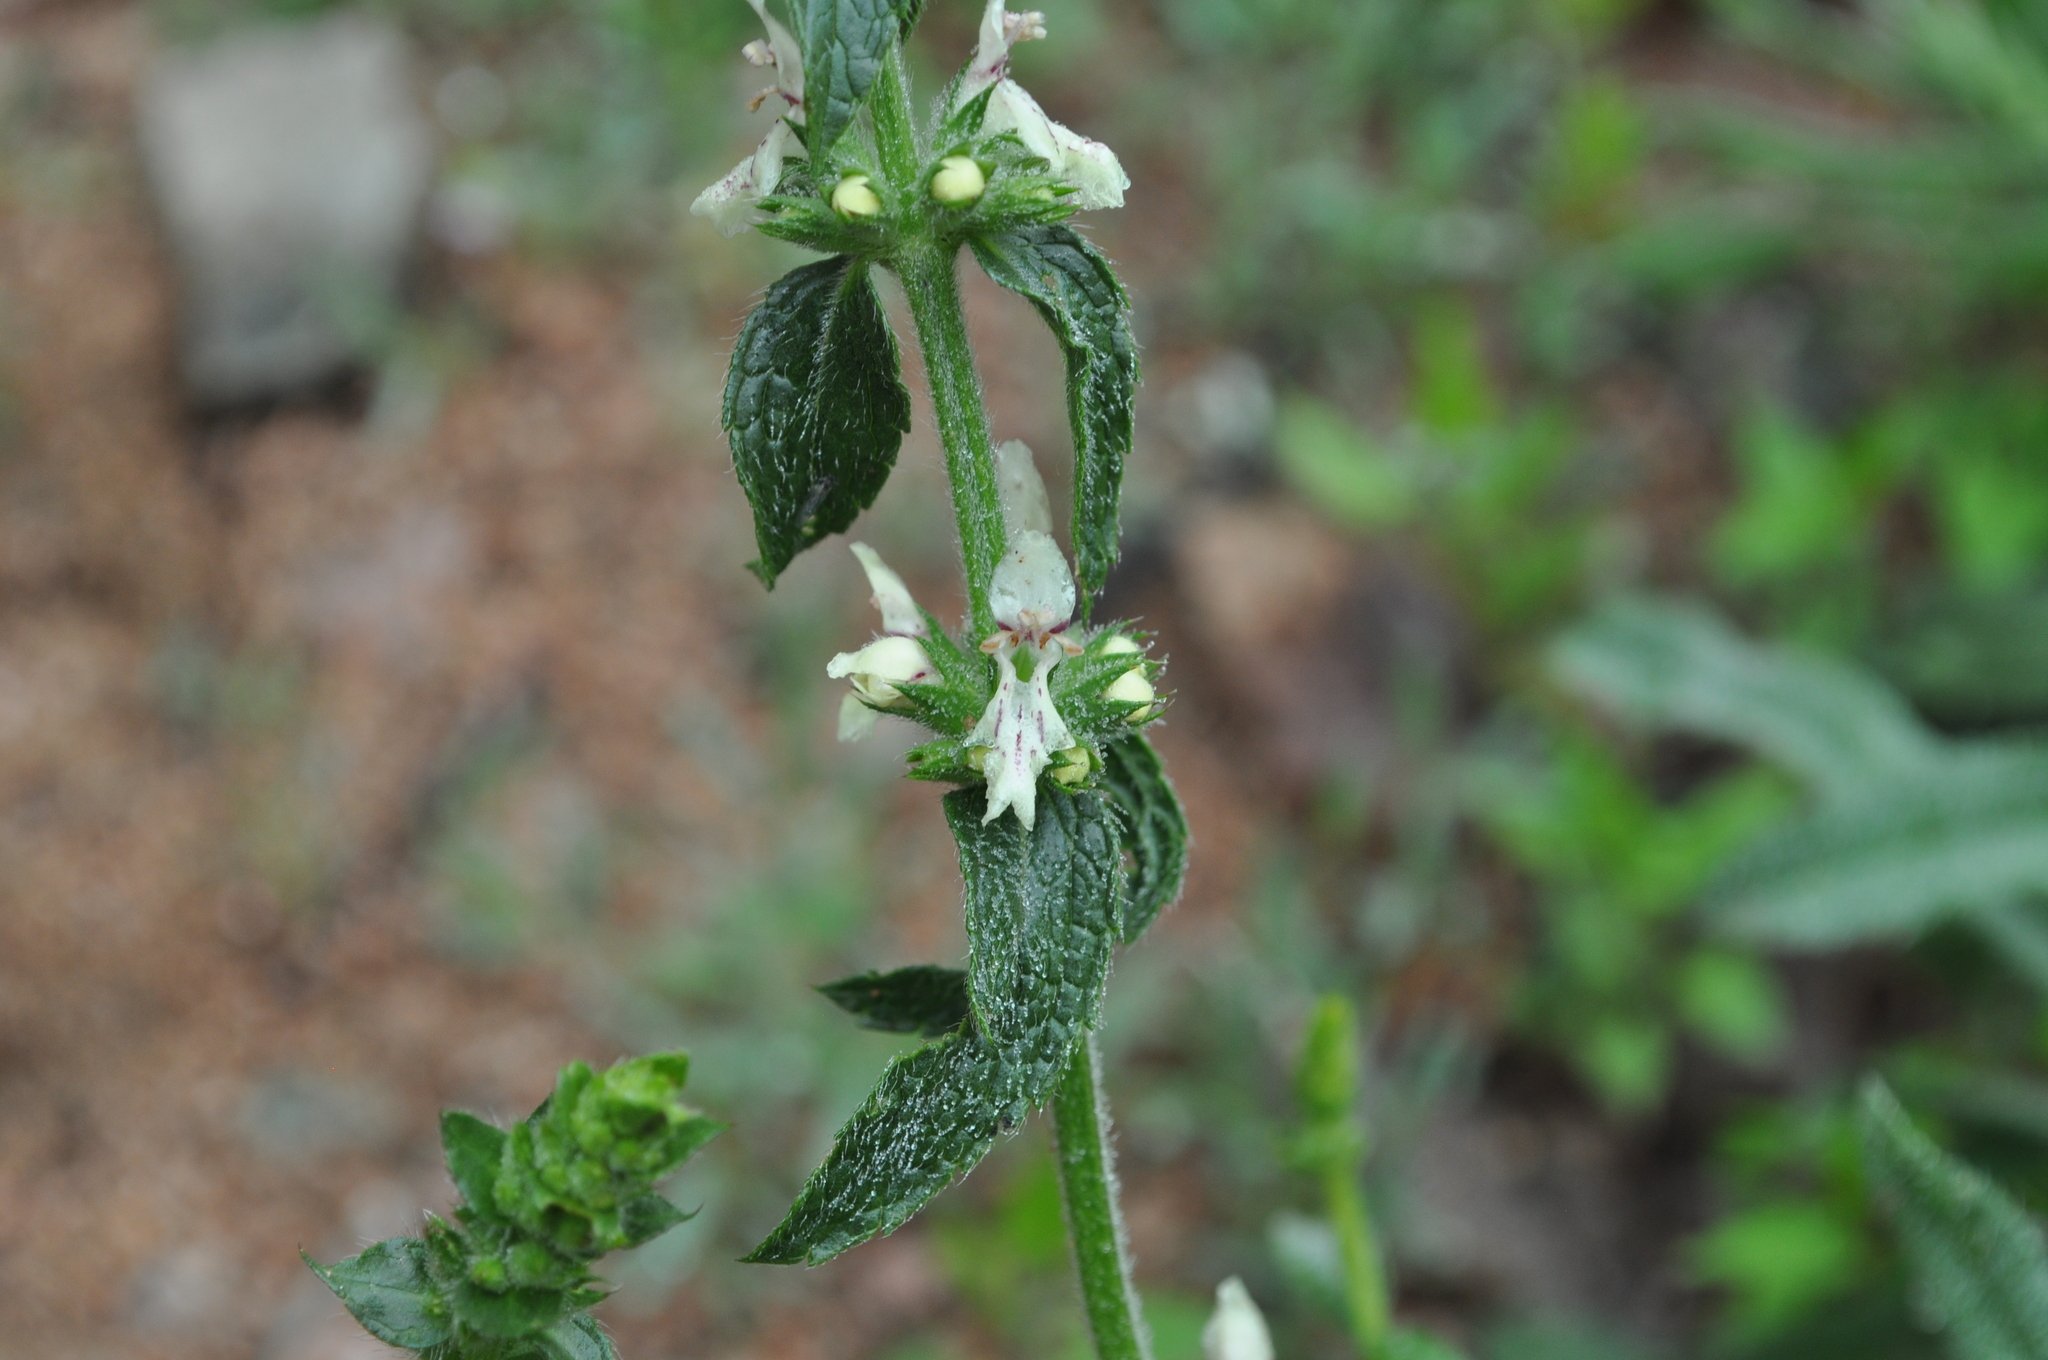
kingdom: Plantae
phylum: Tracheophyta
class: Magnoliopsida
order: Lamiales
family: Lamiaceae
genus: Stachys
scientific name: Stachys recta
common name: Perennial yellow-woundwort
